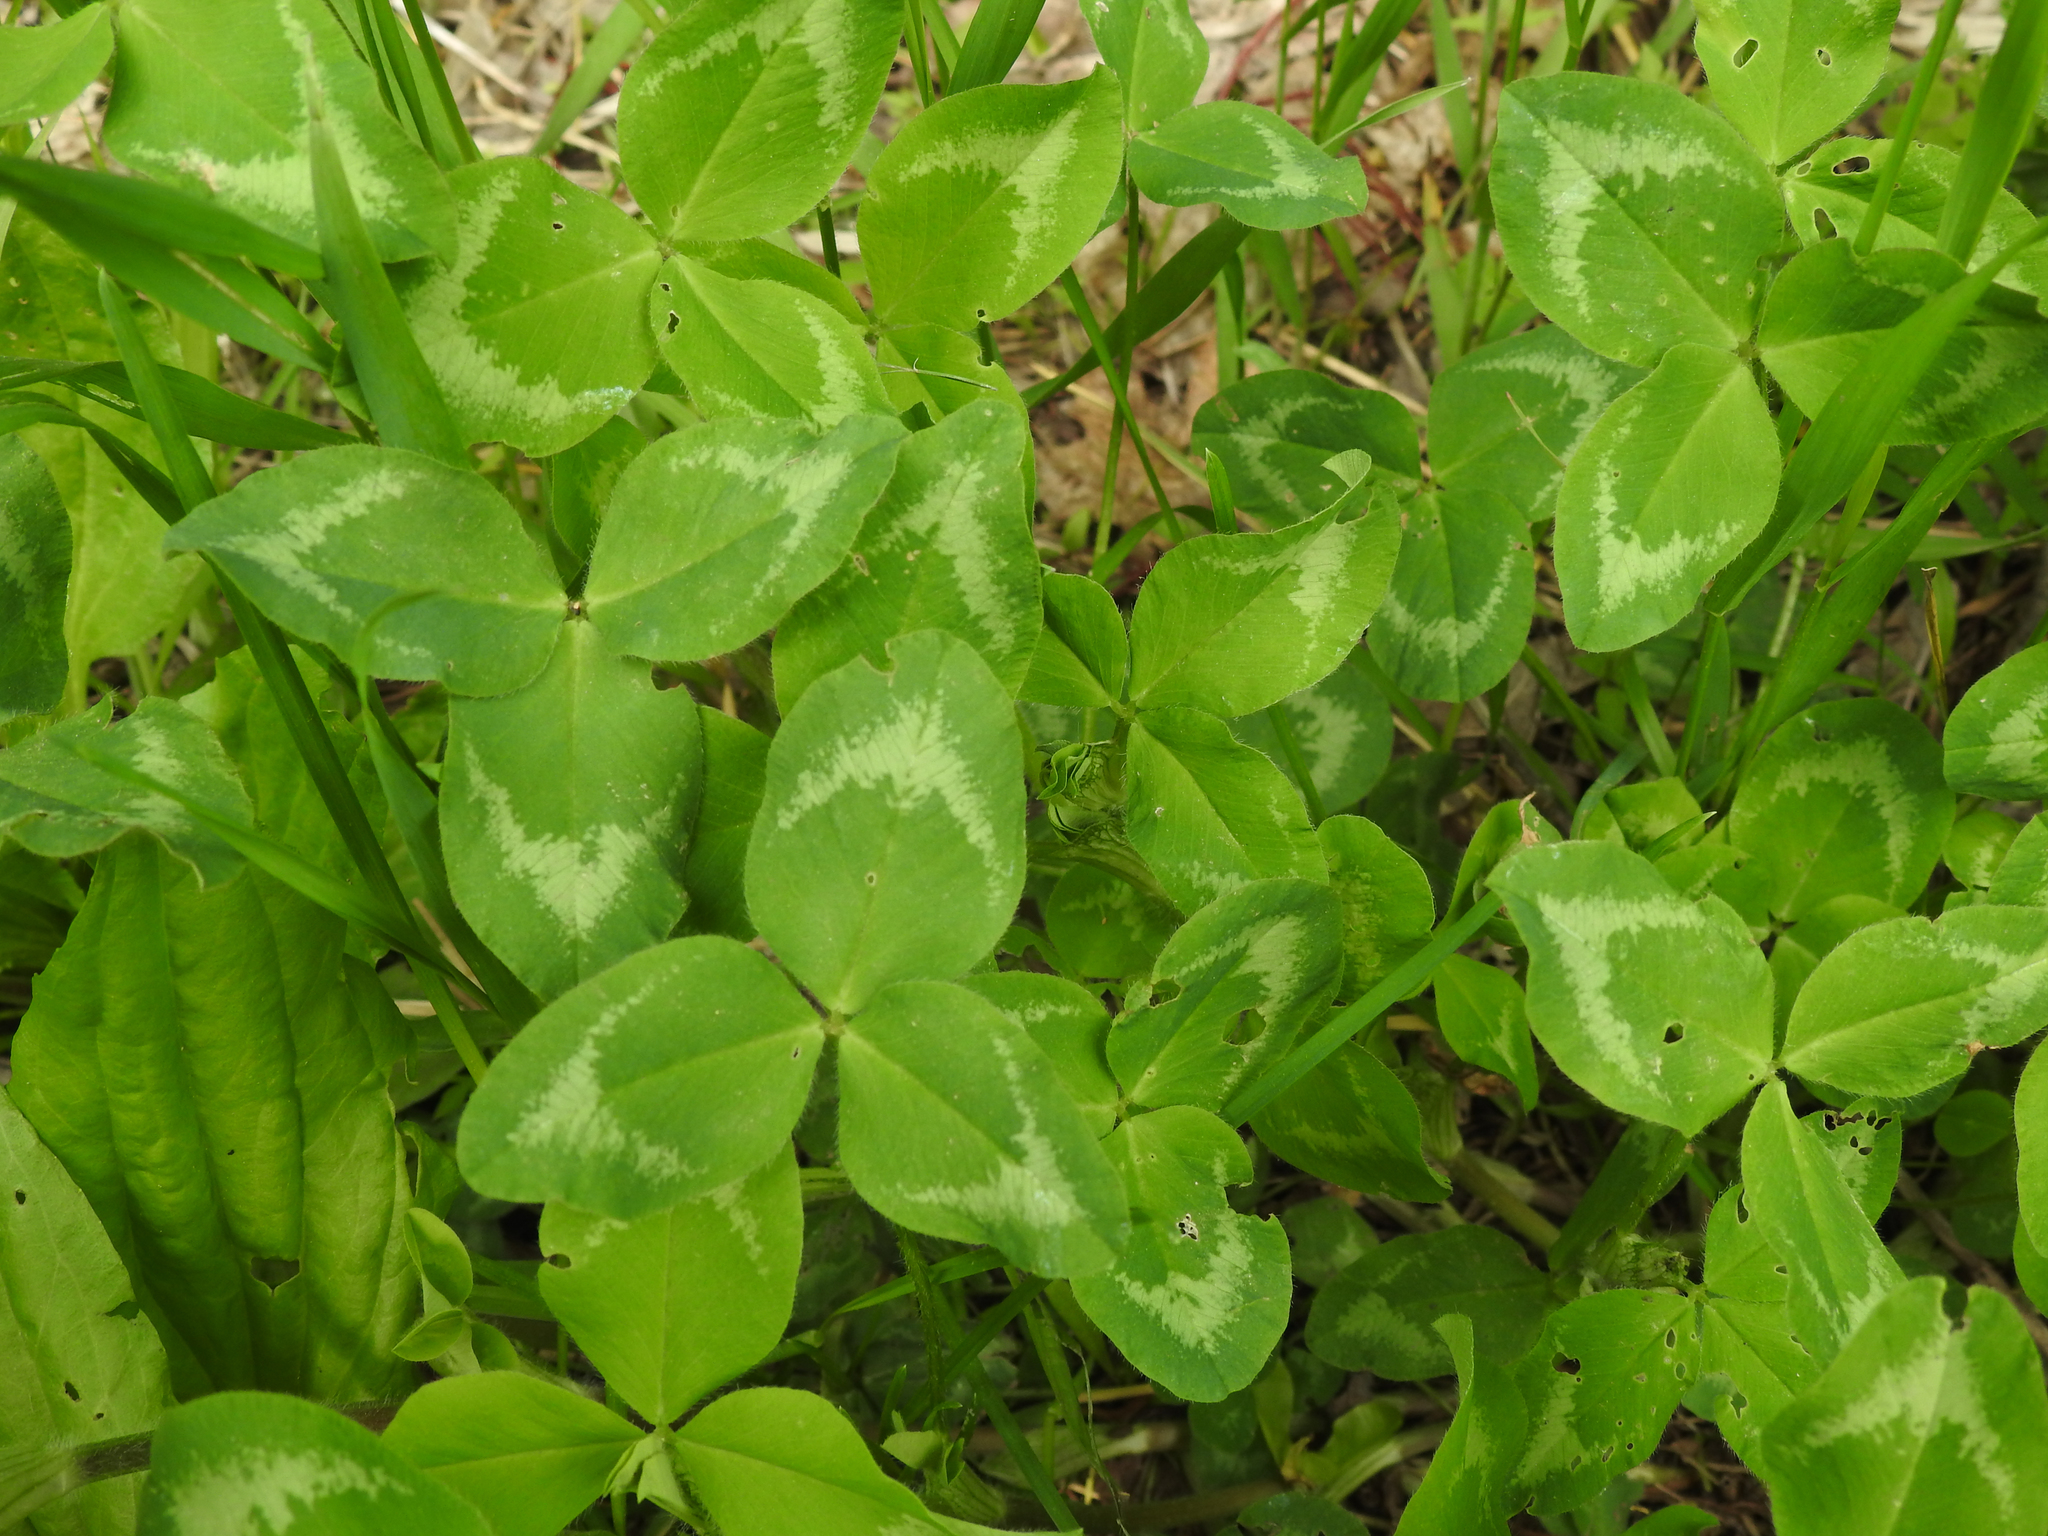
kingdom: Plantae
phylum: Tracheophyta
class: Magnoliopsida
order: Fabales
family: Fabaceae
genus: Trifolium
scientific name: Trifolium pratense
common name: Red clover
